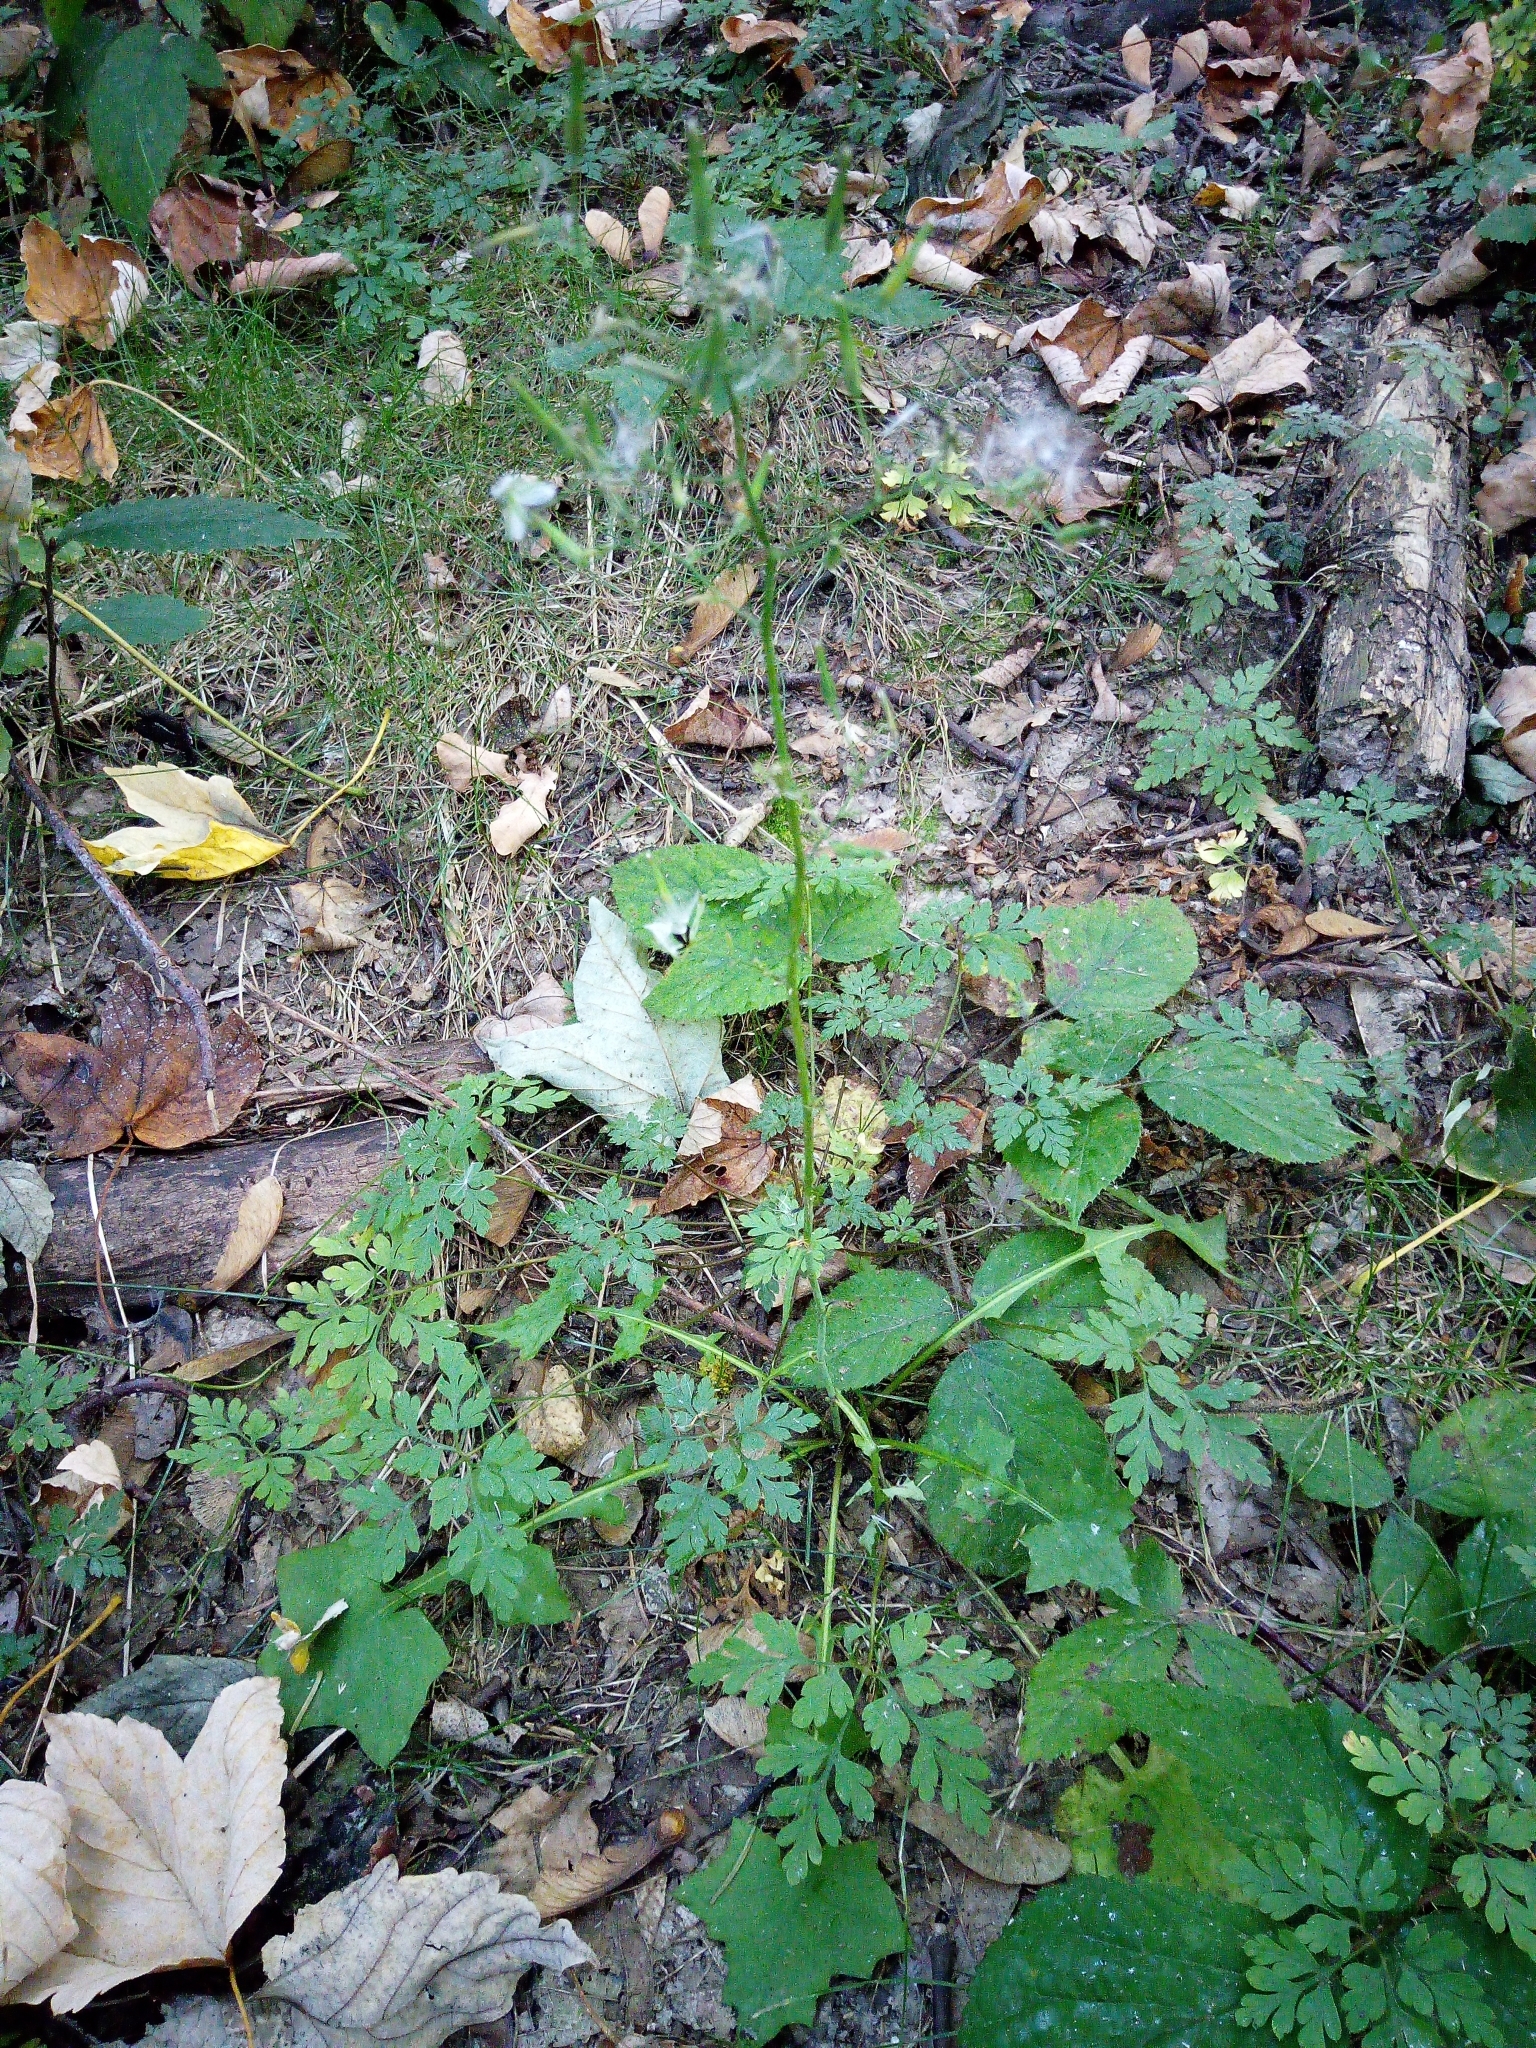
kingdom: Plantae
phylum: Tracheophyta
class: Magnoliopsida
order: Asterales
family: Asteraceae
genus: Mycelis
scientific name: Mycelis muralis
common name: Wall lettuce
